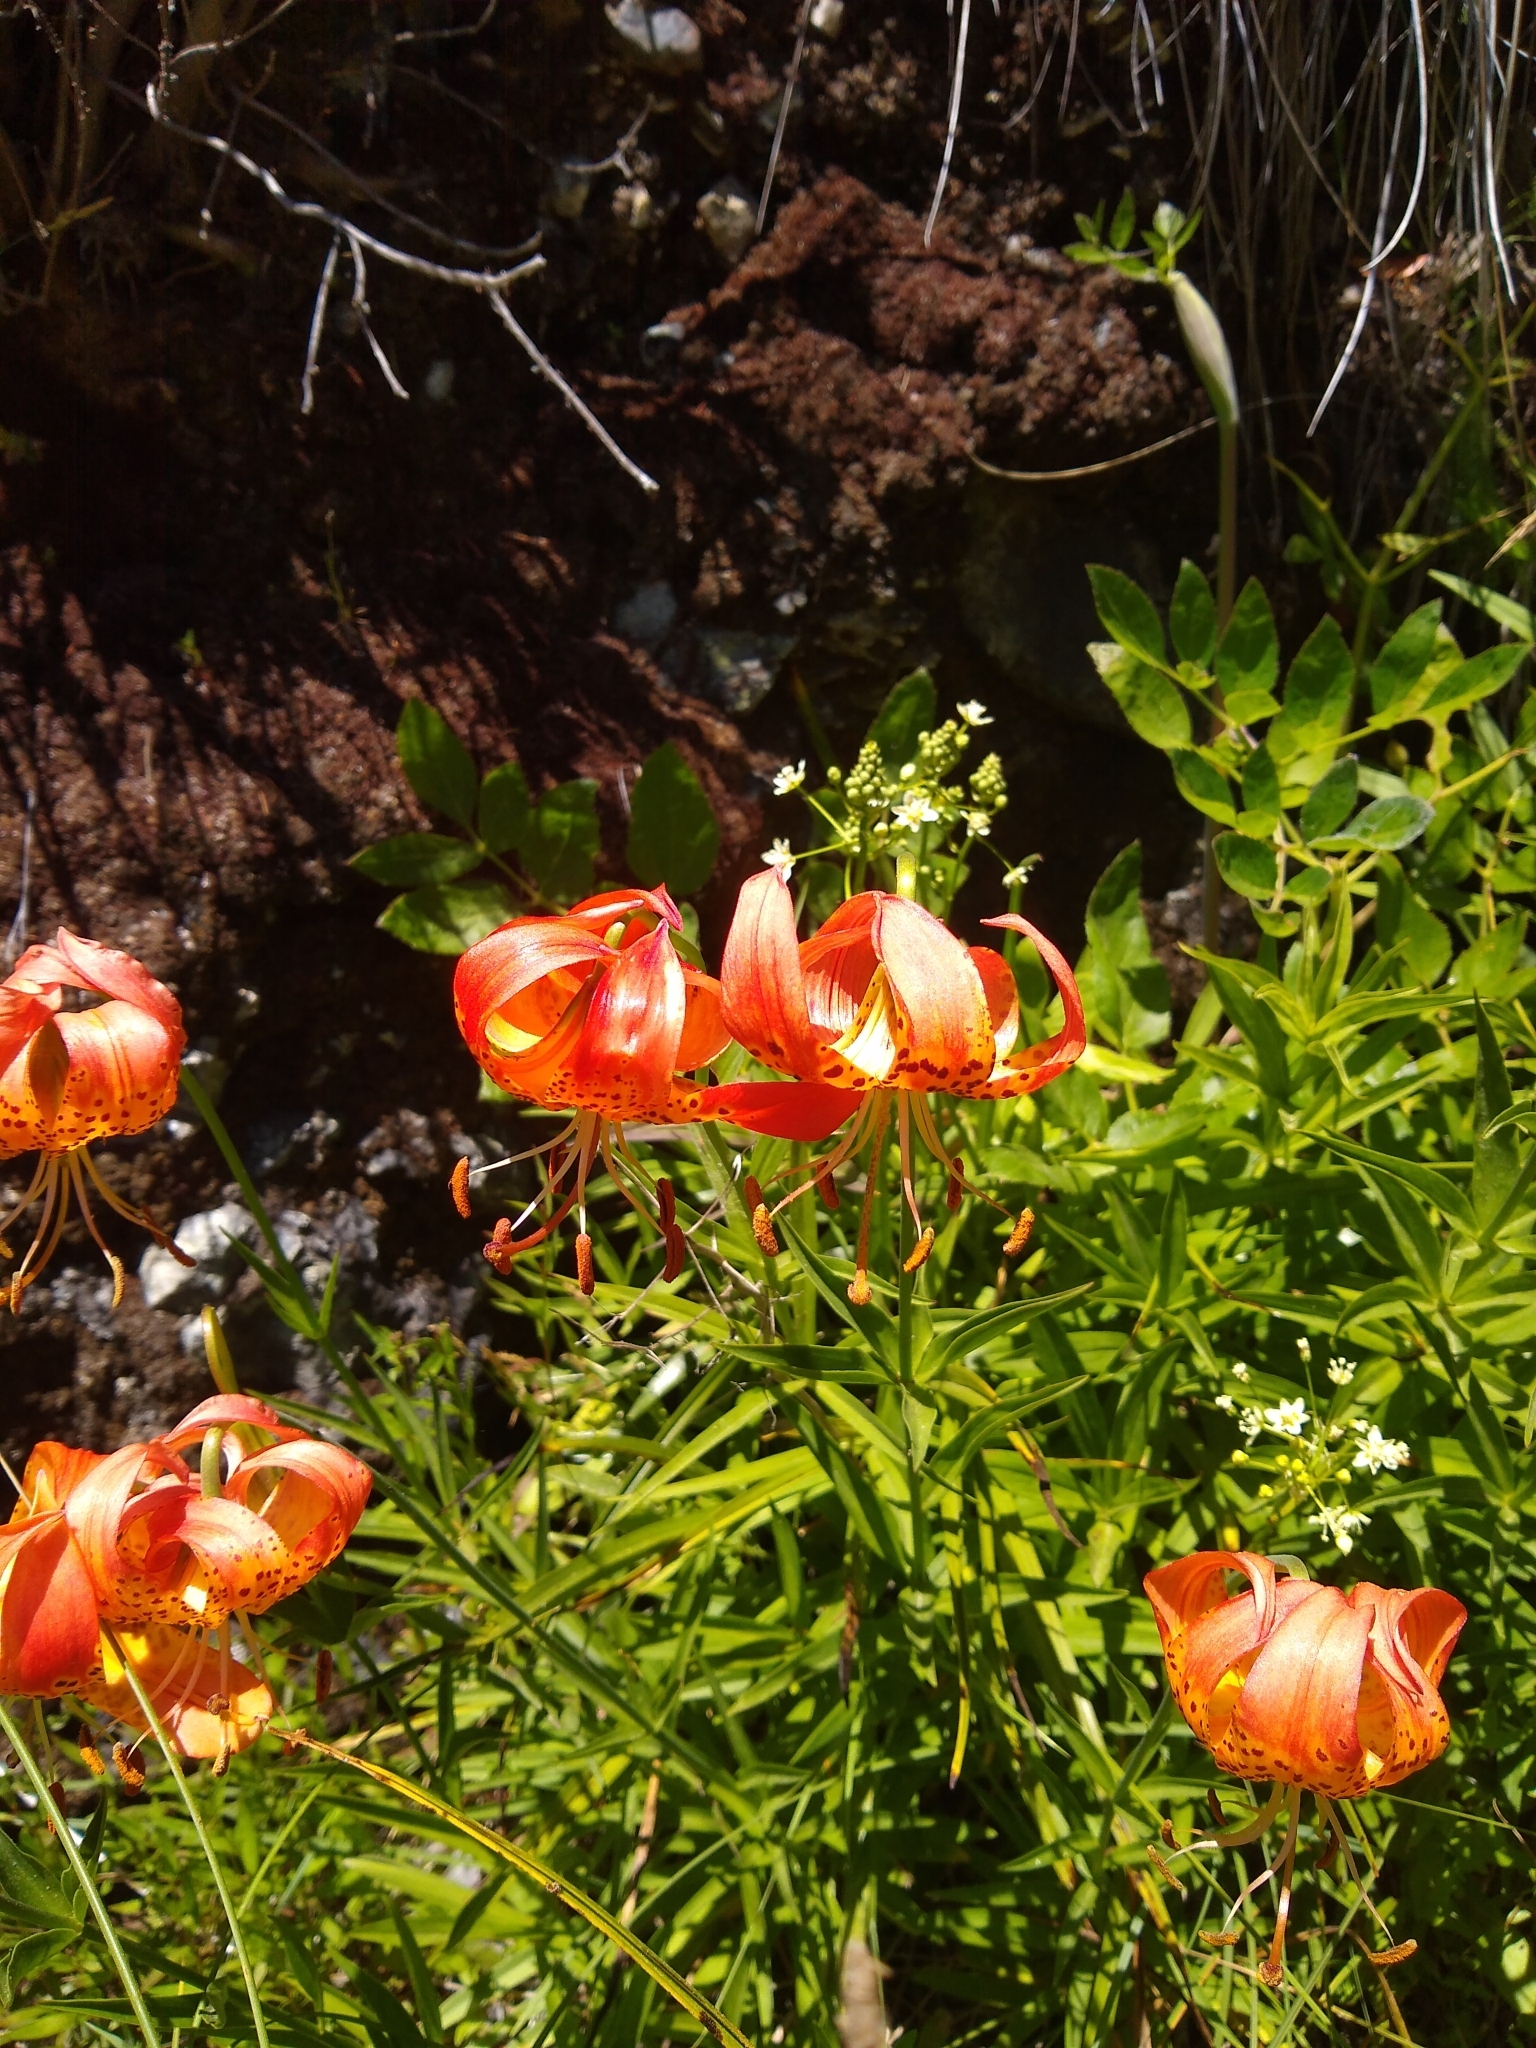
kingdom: Plantae
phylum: Tracheophyta
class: Liliopsida
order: Liliales
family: Liliaceae
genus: Lilium
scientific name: Lilium pardalinum
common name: Panther lily
